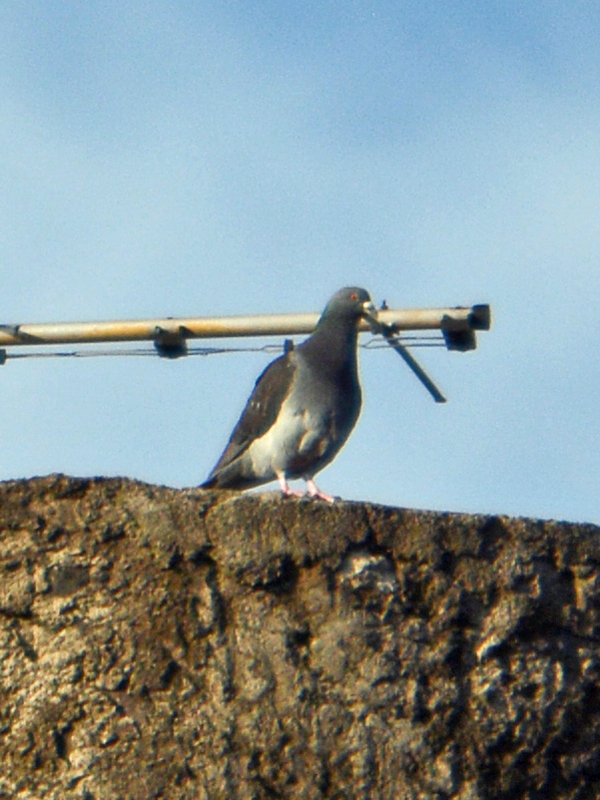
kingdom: Animalia
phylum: Chordata
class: Aves
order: Columbiformes
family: Columbidae
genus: Columba
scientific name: Columba livia
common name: Rock pigeon
